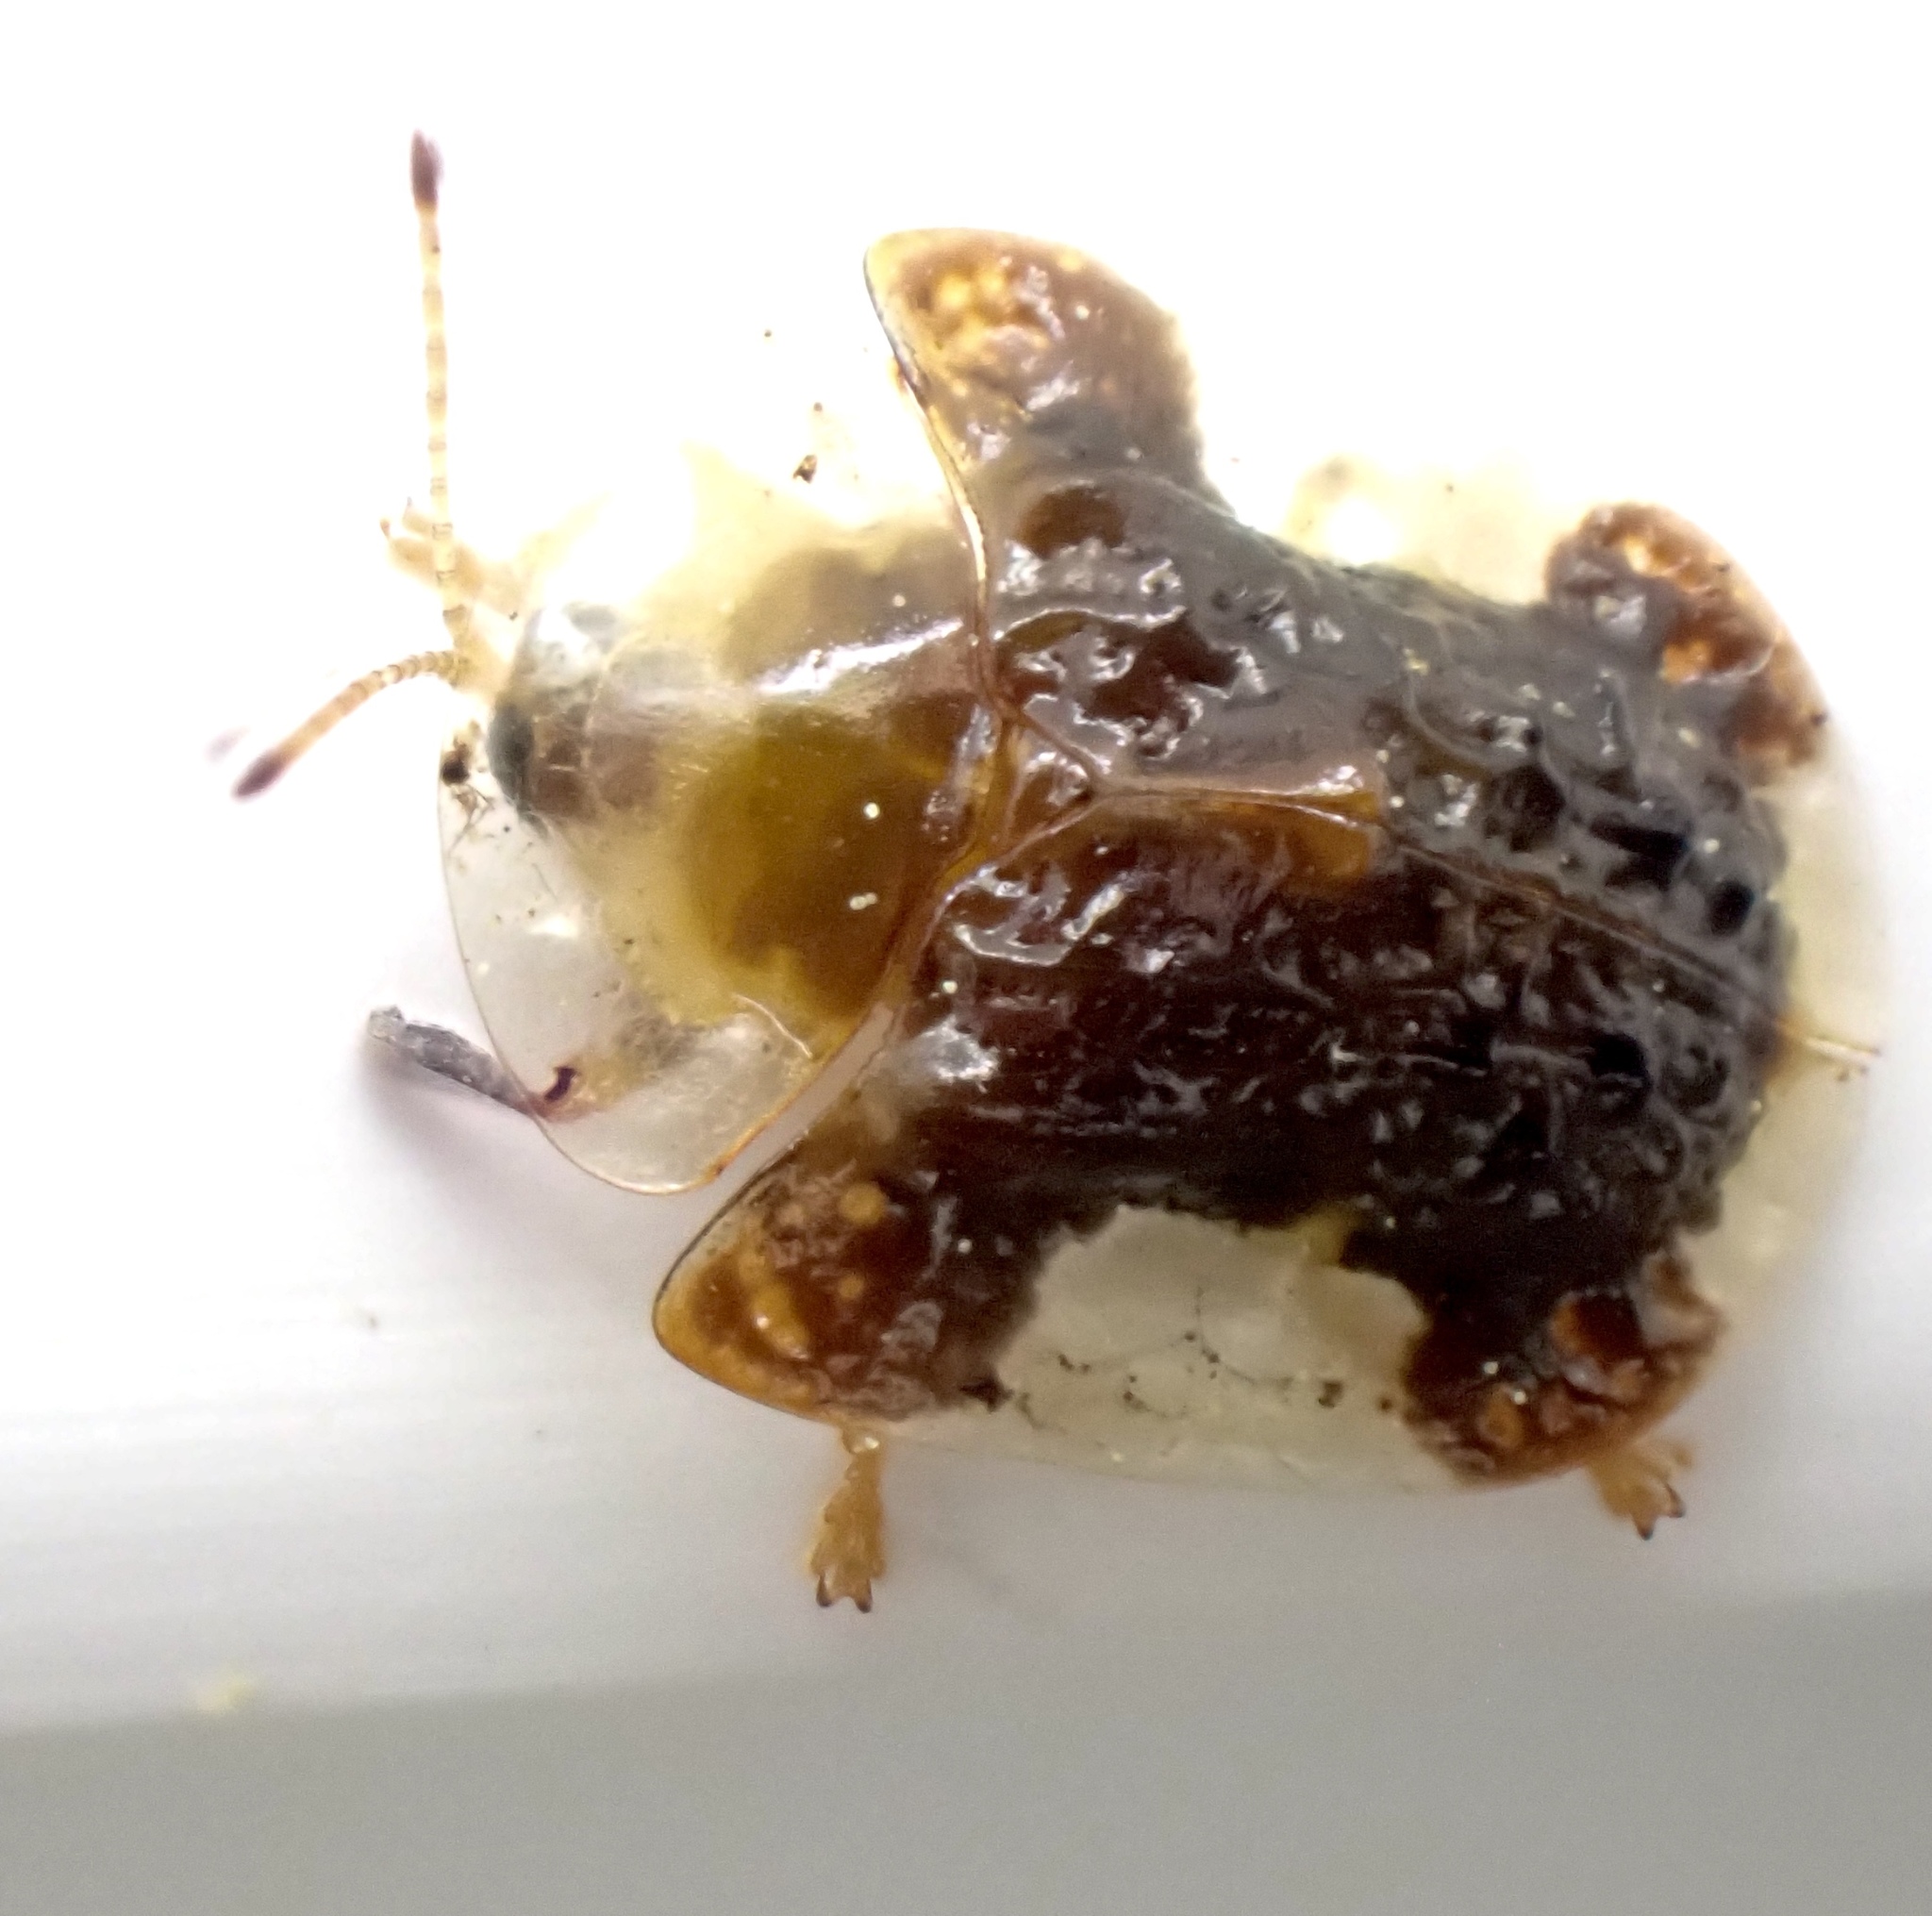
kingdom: Animalia
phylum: Arthropoda
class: Insecta
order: Coleoptera
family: Chrysomelidae
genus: Helocassis
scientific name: Helocassis clavata
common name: Clavate tortoise beetle
